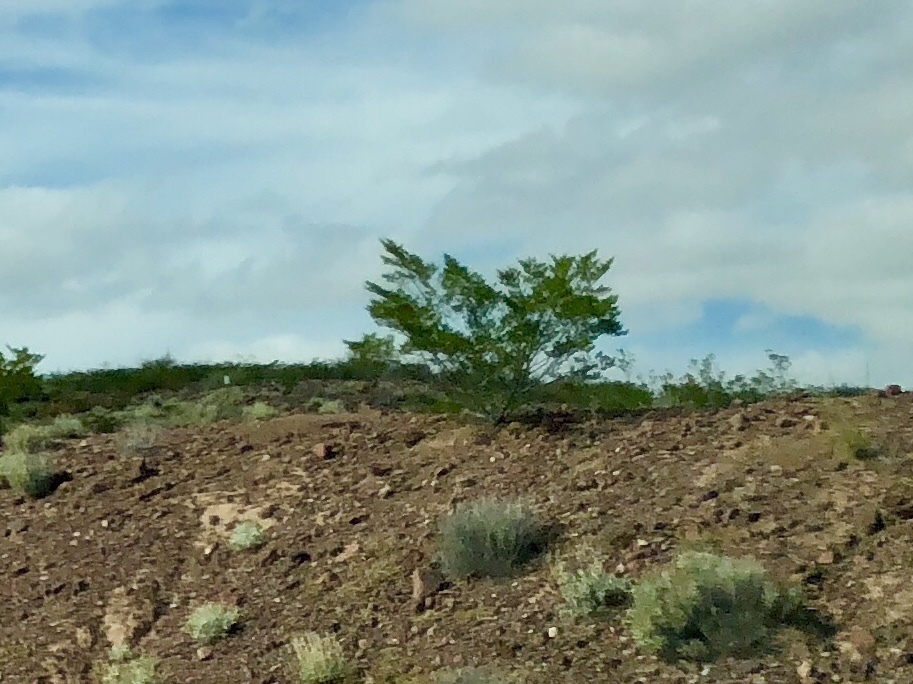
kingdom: Plantae
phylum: Tracheophyta
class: Magnoliopsida
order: Zygophyllales
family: Zygophyllaceae
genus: Larrea
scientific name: Larrea tridentata
